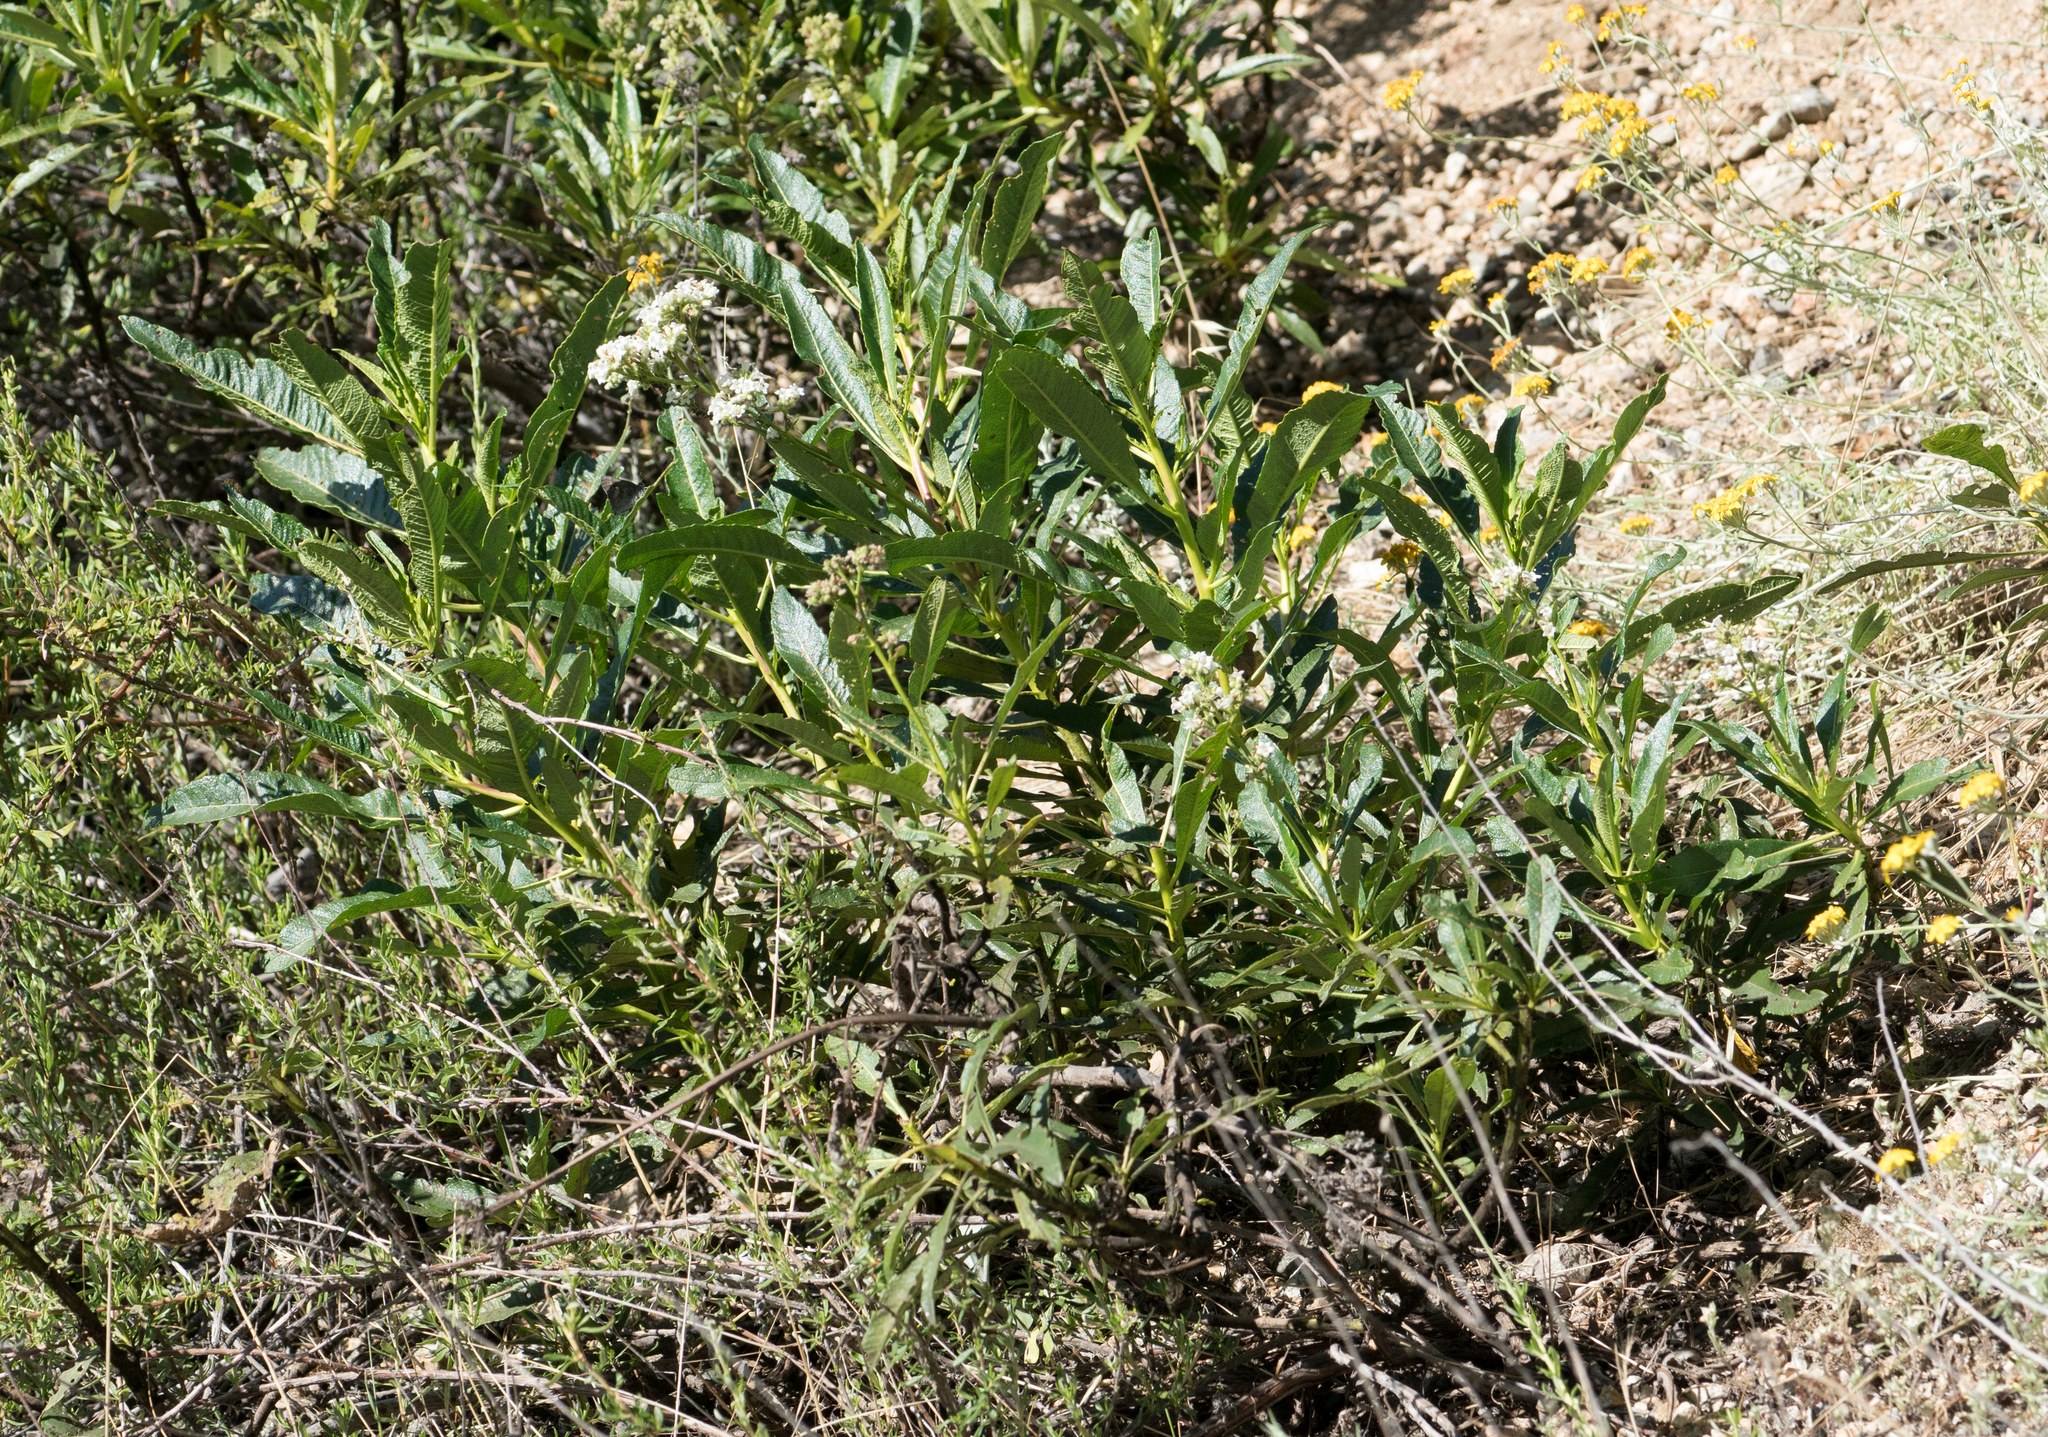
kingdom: Plantae
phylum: Tracheophyta
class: Magnoliopsida
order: Boraginales
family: Namaceae
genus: Eriodictyon
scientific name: Eriodictyon trichocalyx
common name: Hairy yerba-santa
